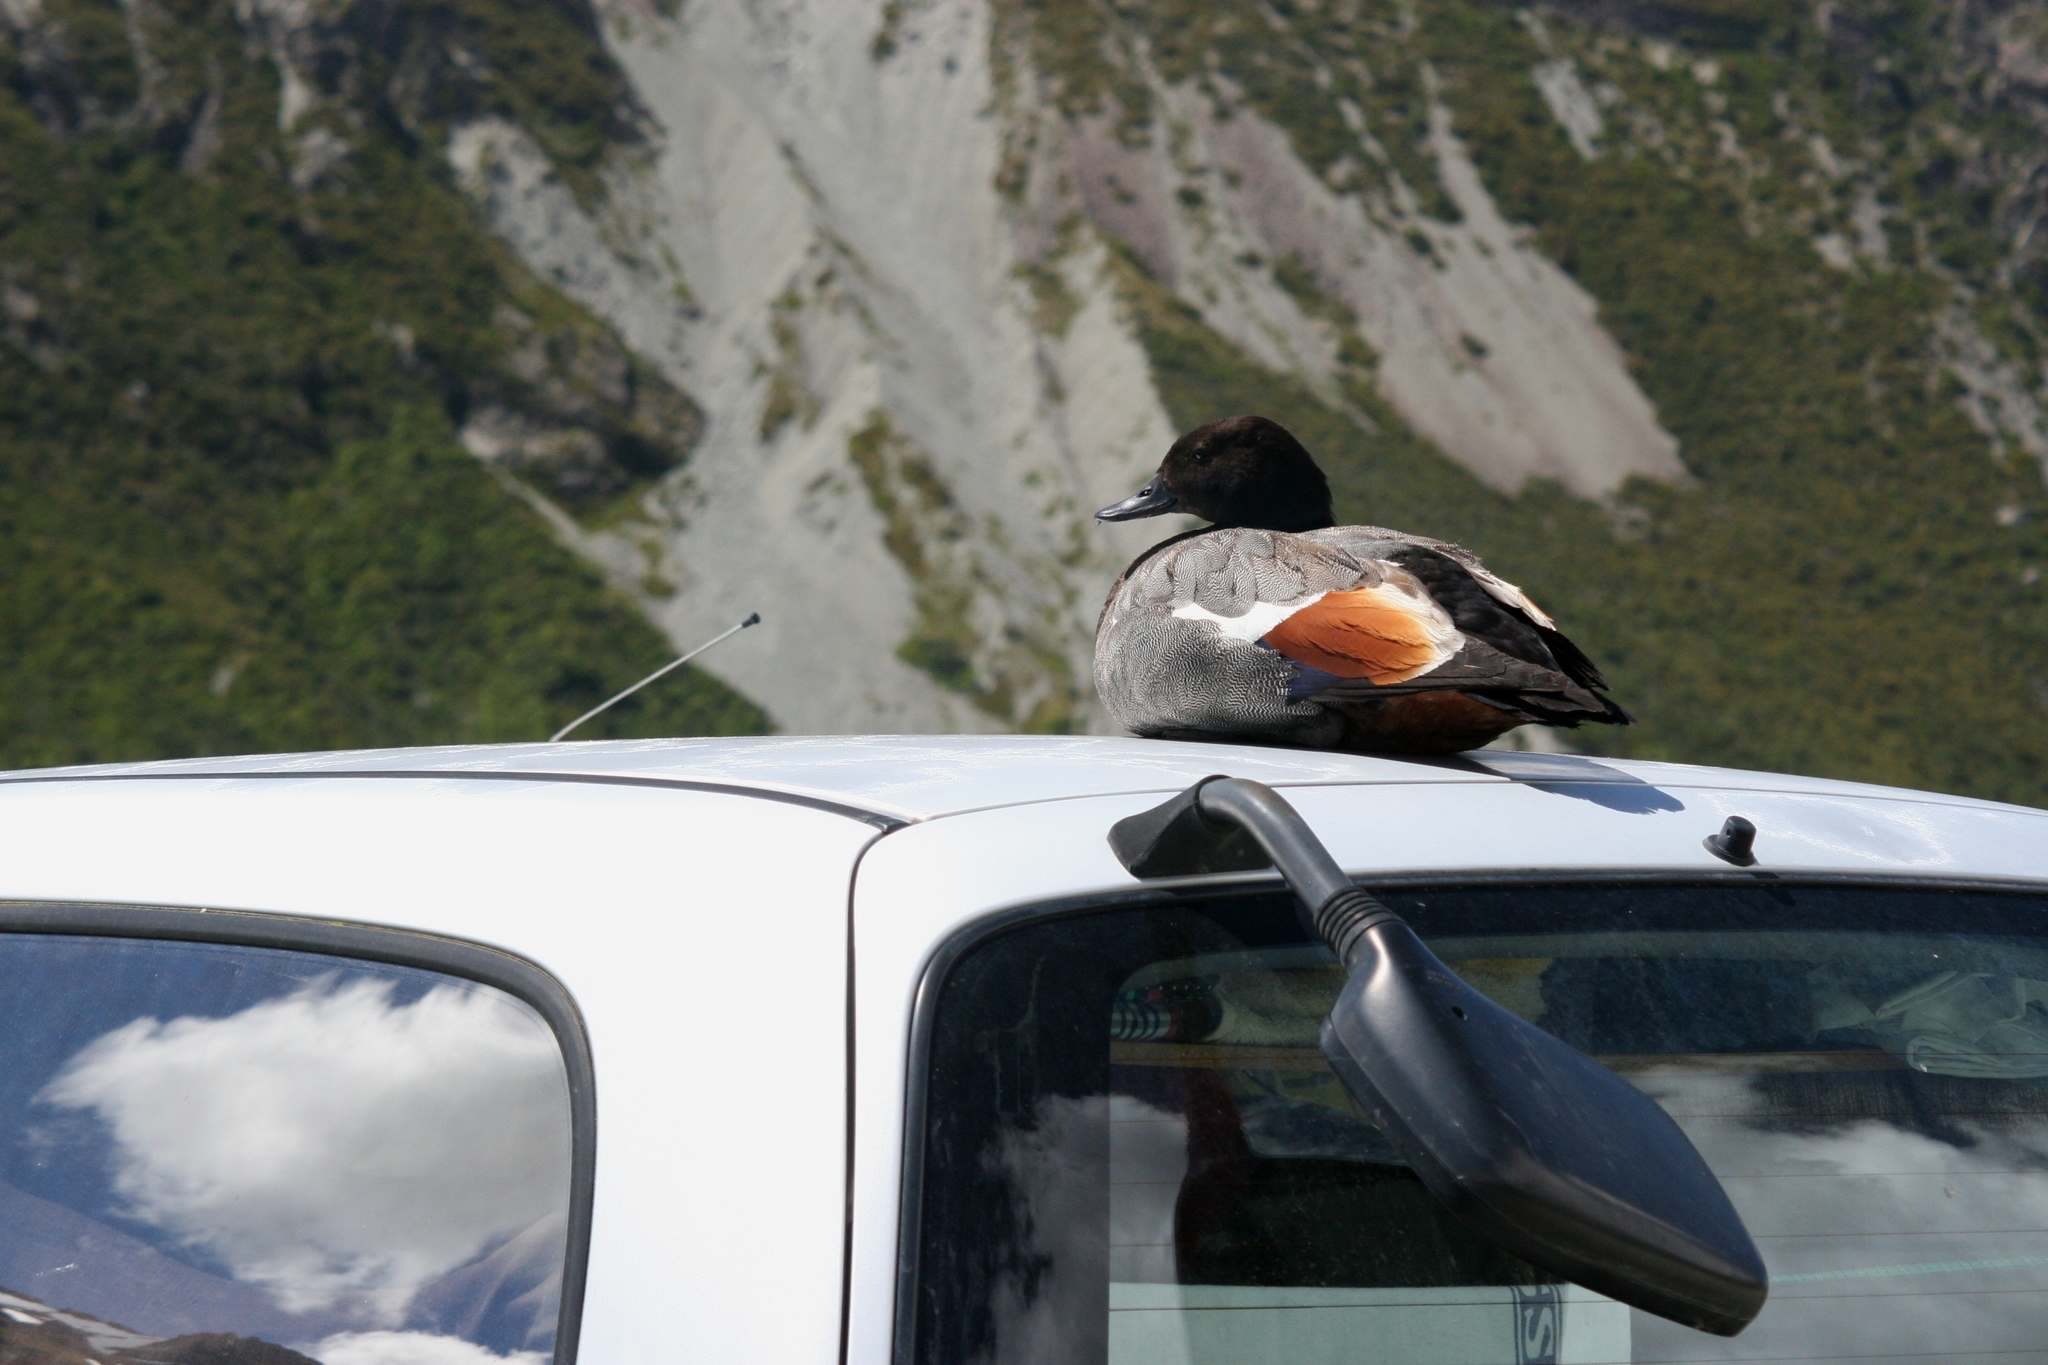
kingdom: Animalia
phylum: Chordata
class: Aves
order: Anseriformes
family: Anatidae
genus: Tadorna
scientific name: Tadorna variegata
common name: Paradise shelduck
